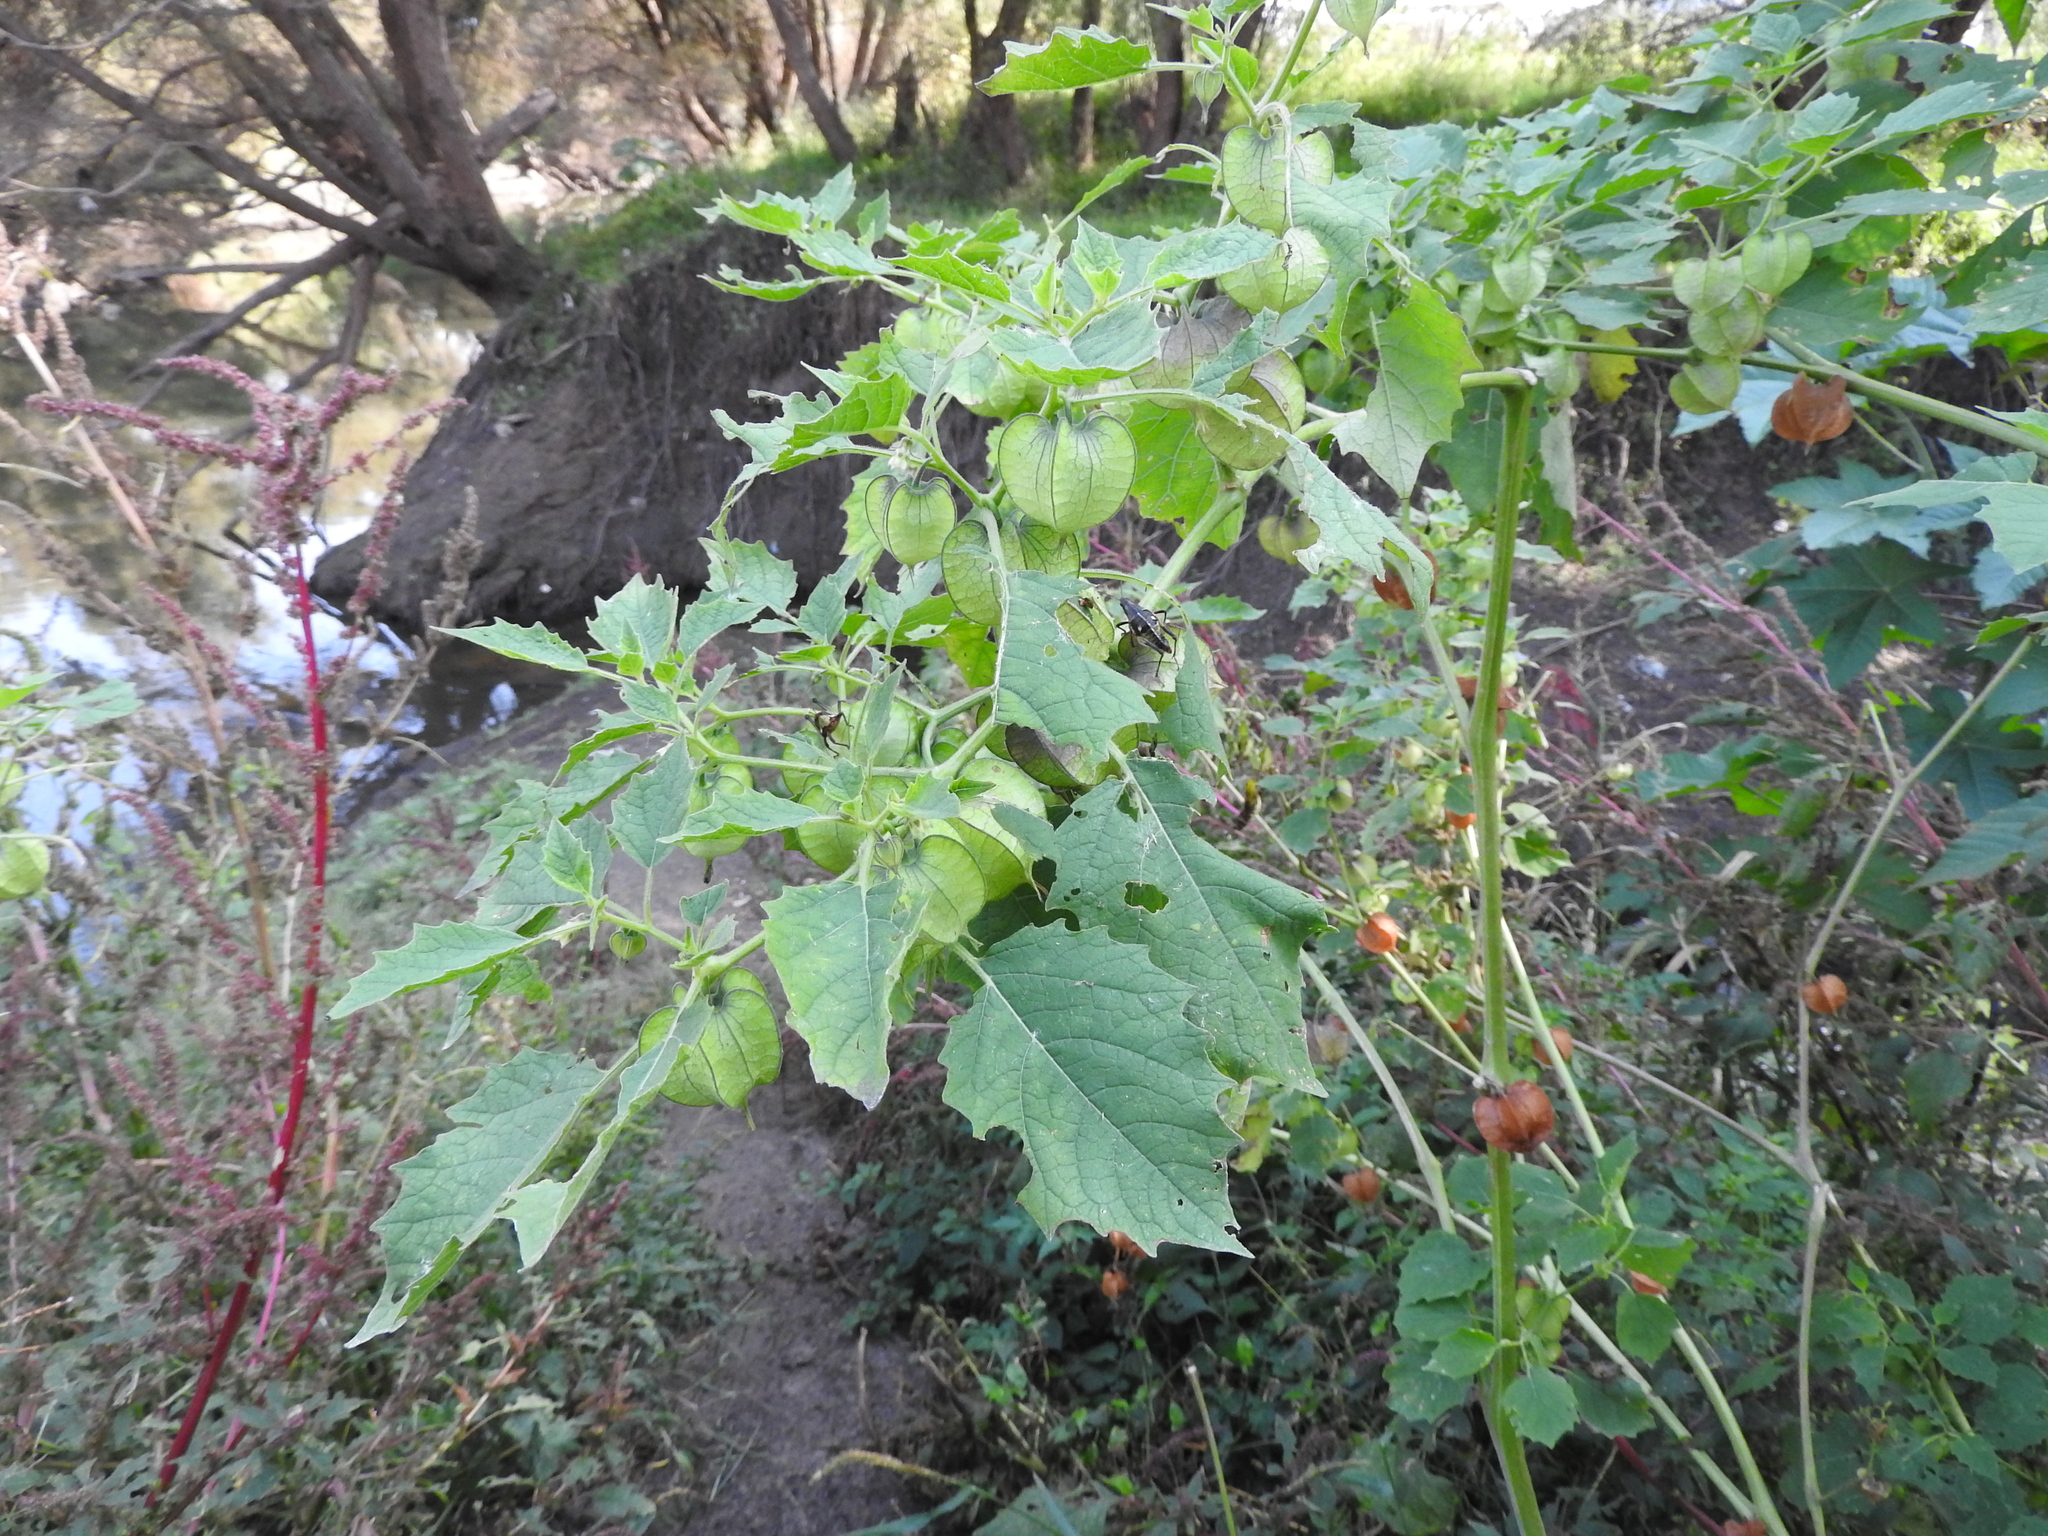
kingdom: Plantae
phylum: Tracheophyta
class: Magnoliopsida
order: Solanales
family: Solanaceae
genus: Physalis
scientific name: Physalis nicandroides
